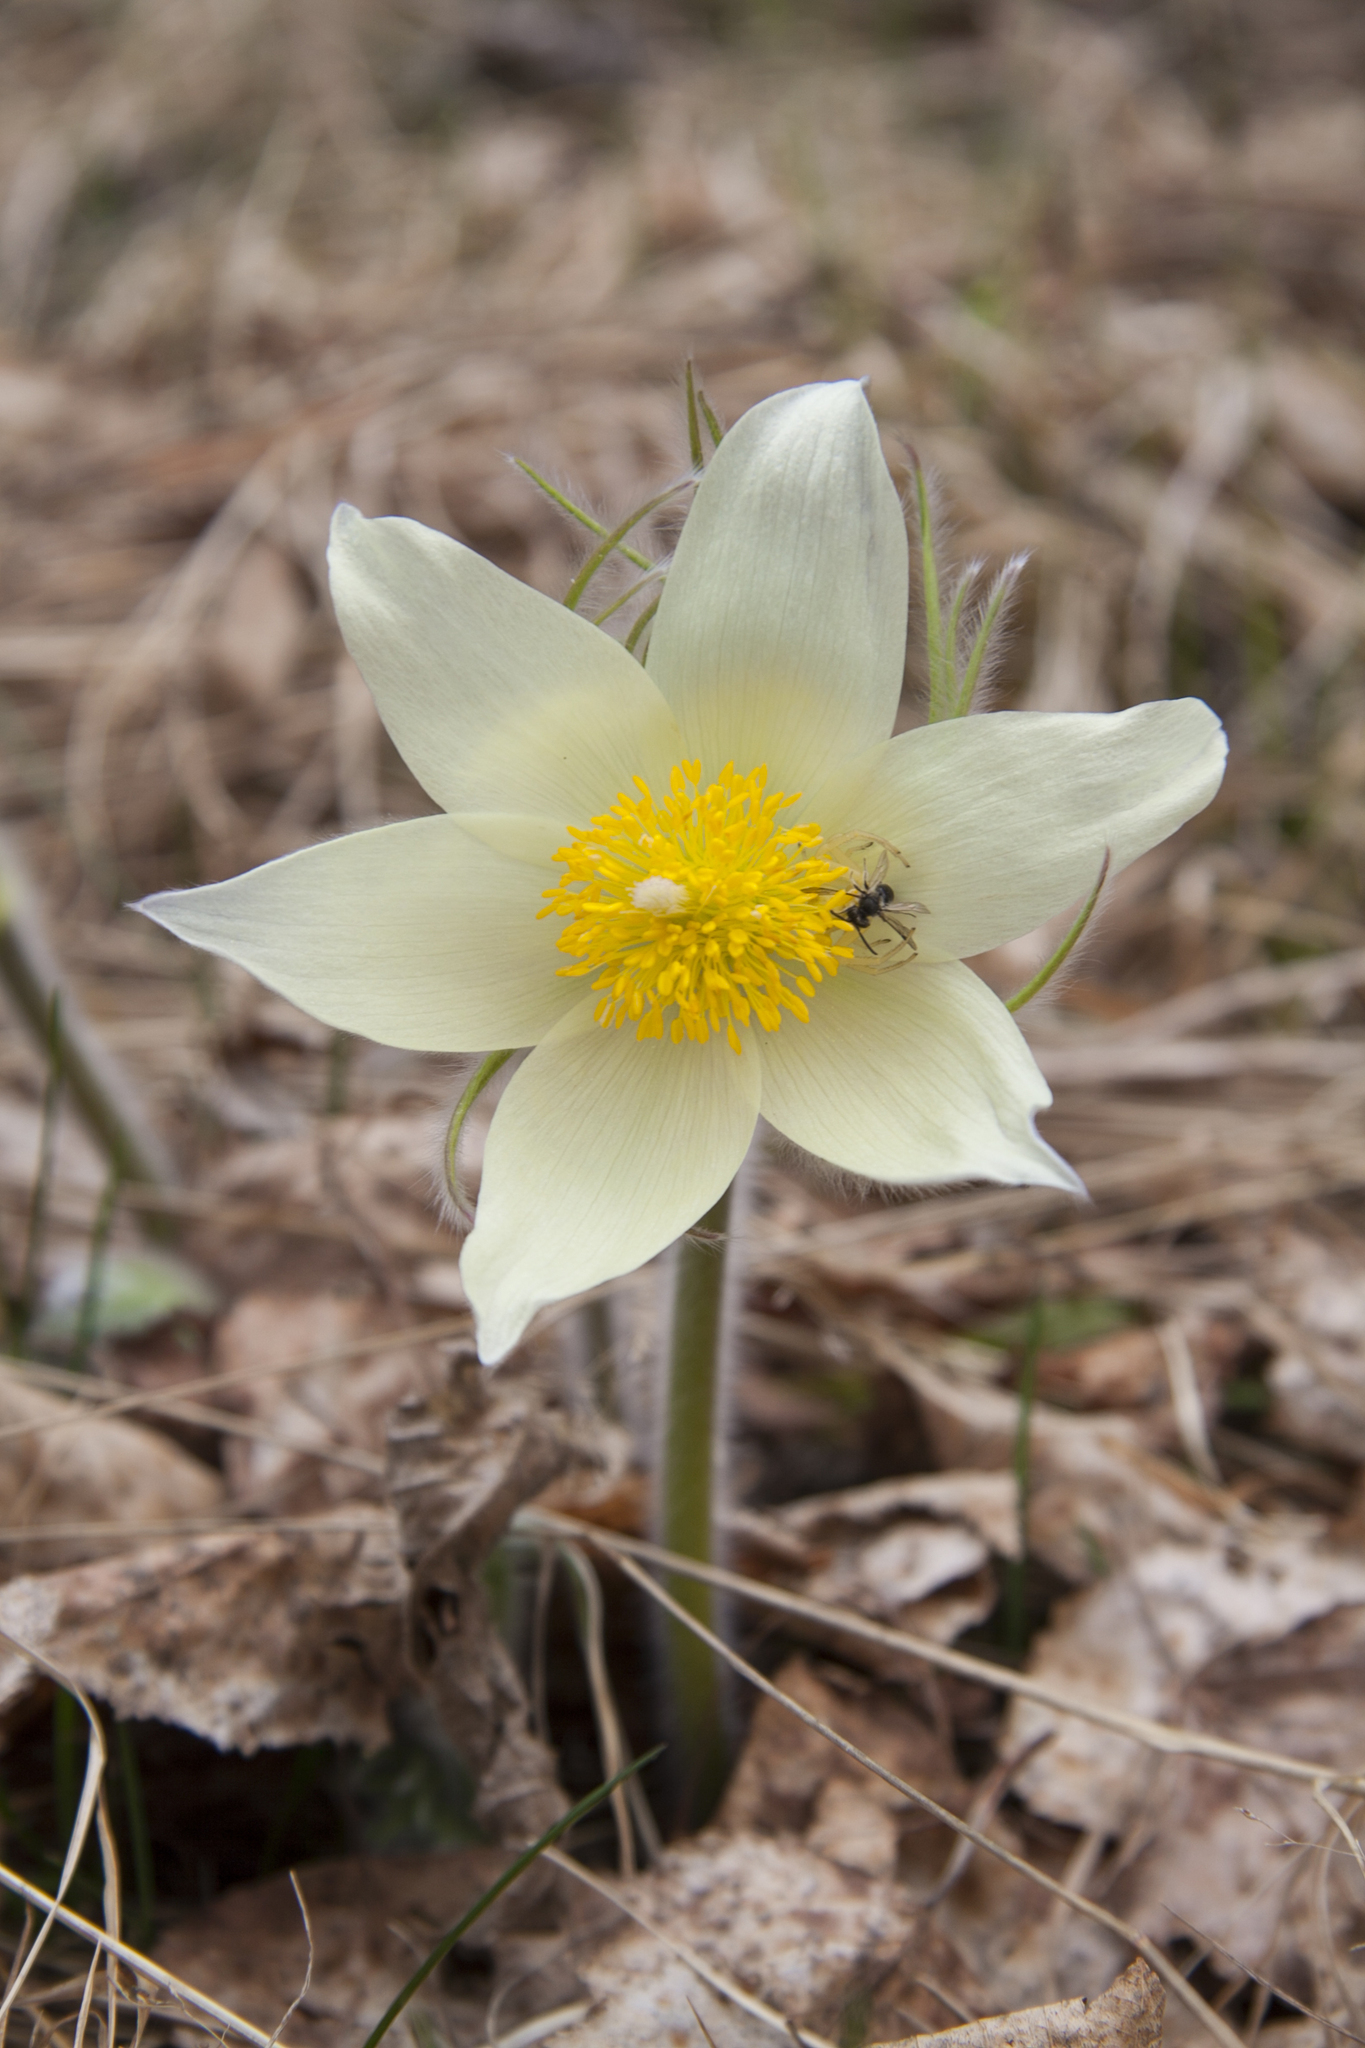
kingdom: Plantae
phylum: Tracheophyta
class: Magnoliopsida
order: Ranunculales
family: Ranunculaceae
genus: Pulsatilla
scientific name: Pulsatilla patens
